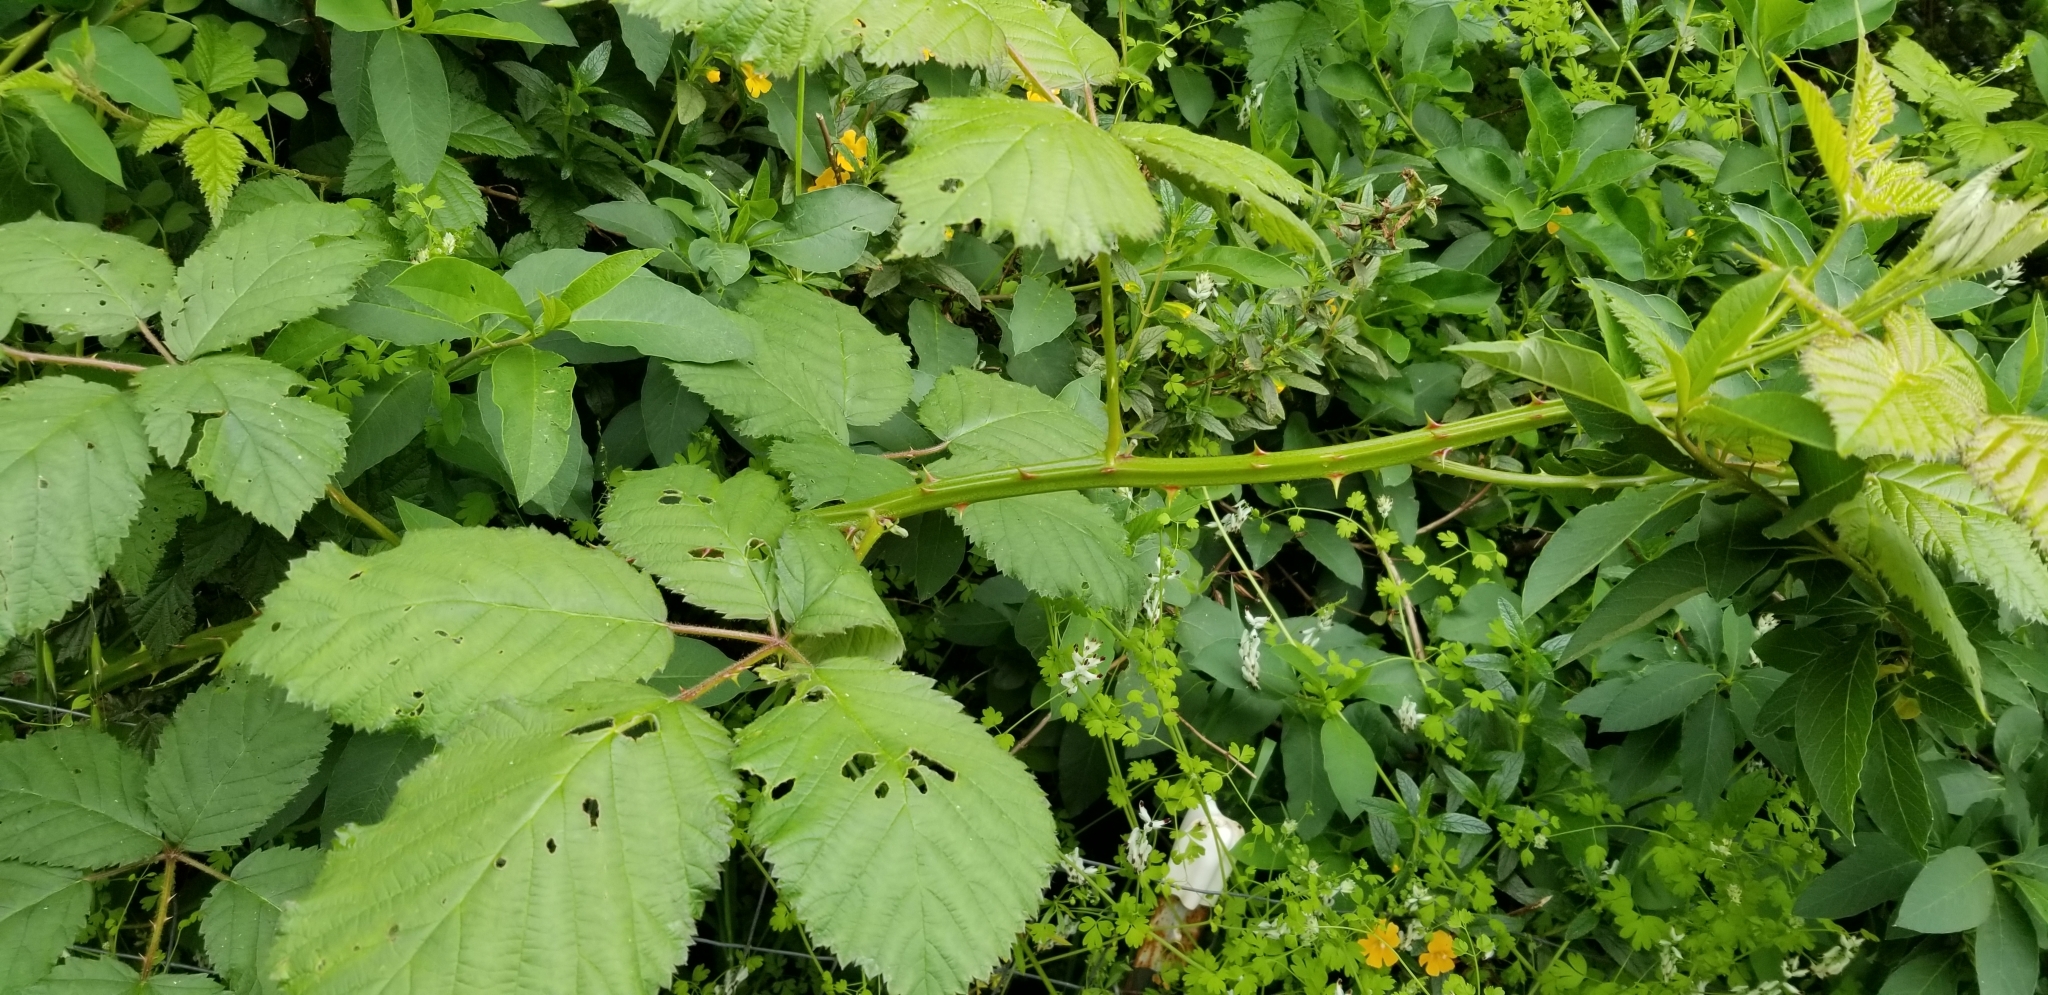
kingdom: Plantae
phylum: Tracheophyta
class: Magnoliopsida
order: Rosales
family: Rosaceae
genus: Rubus
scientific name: Rubus armeniacus
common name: Himalayan blackberry
